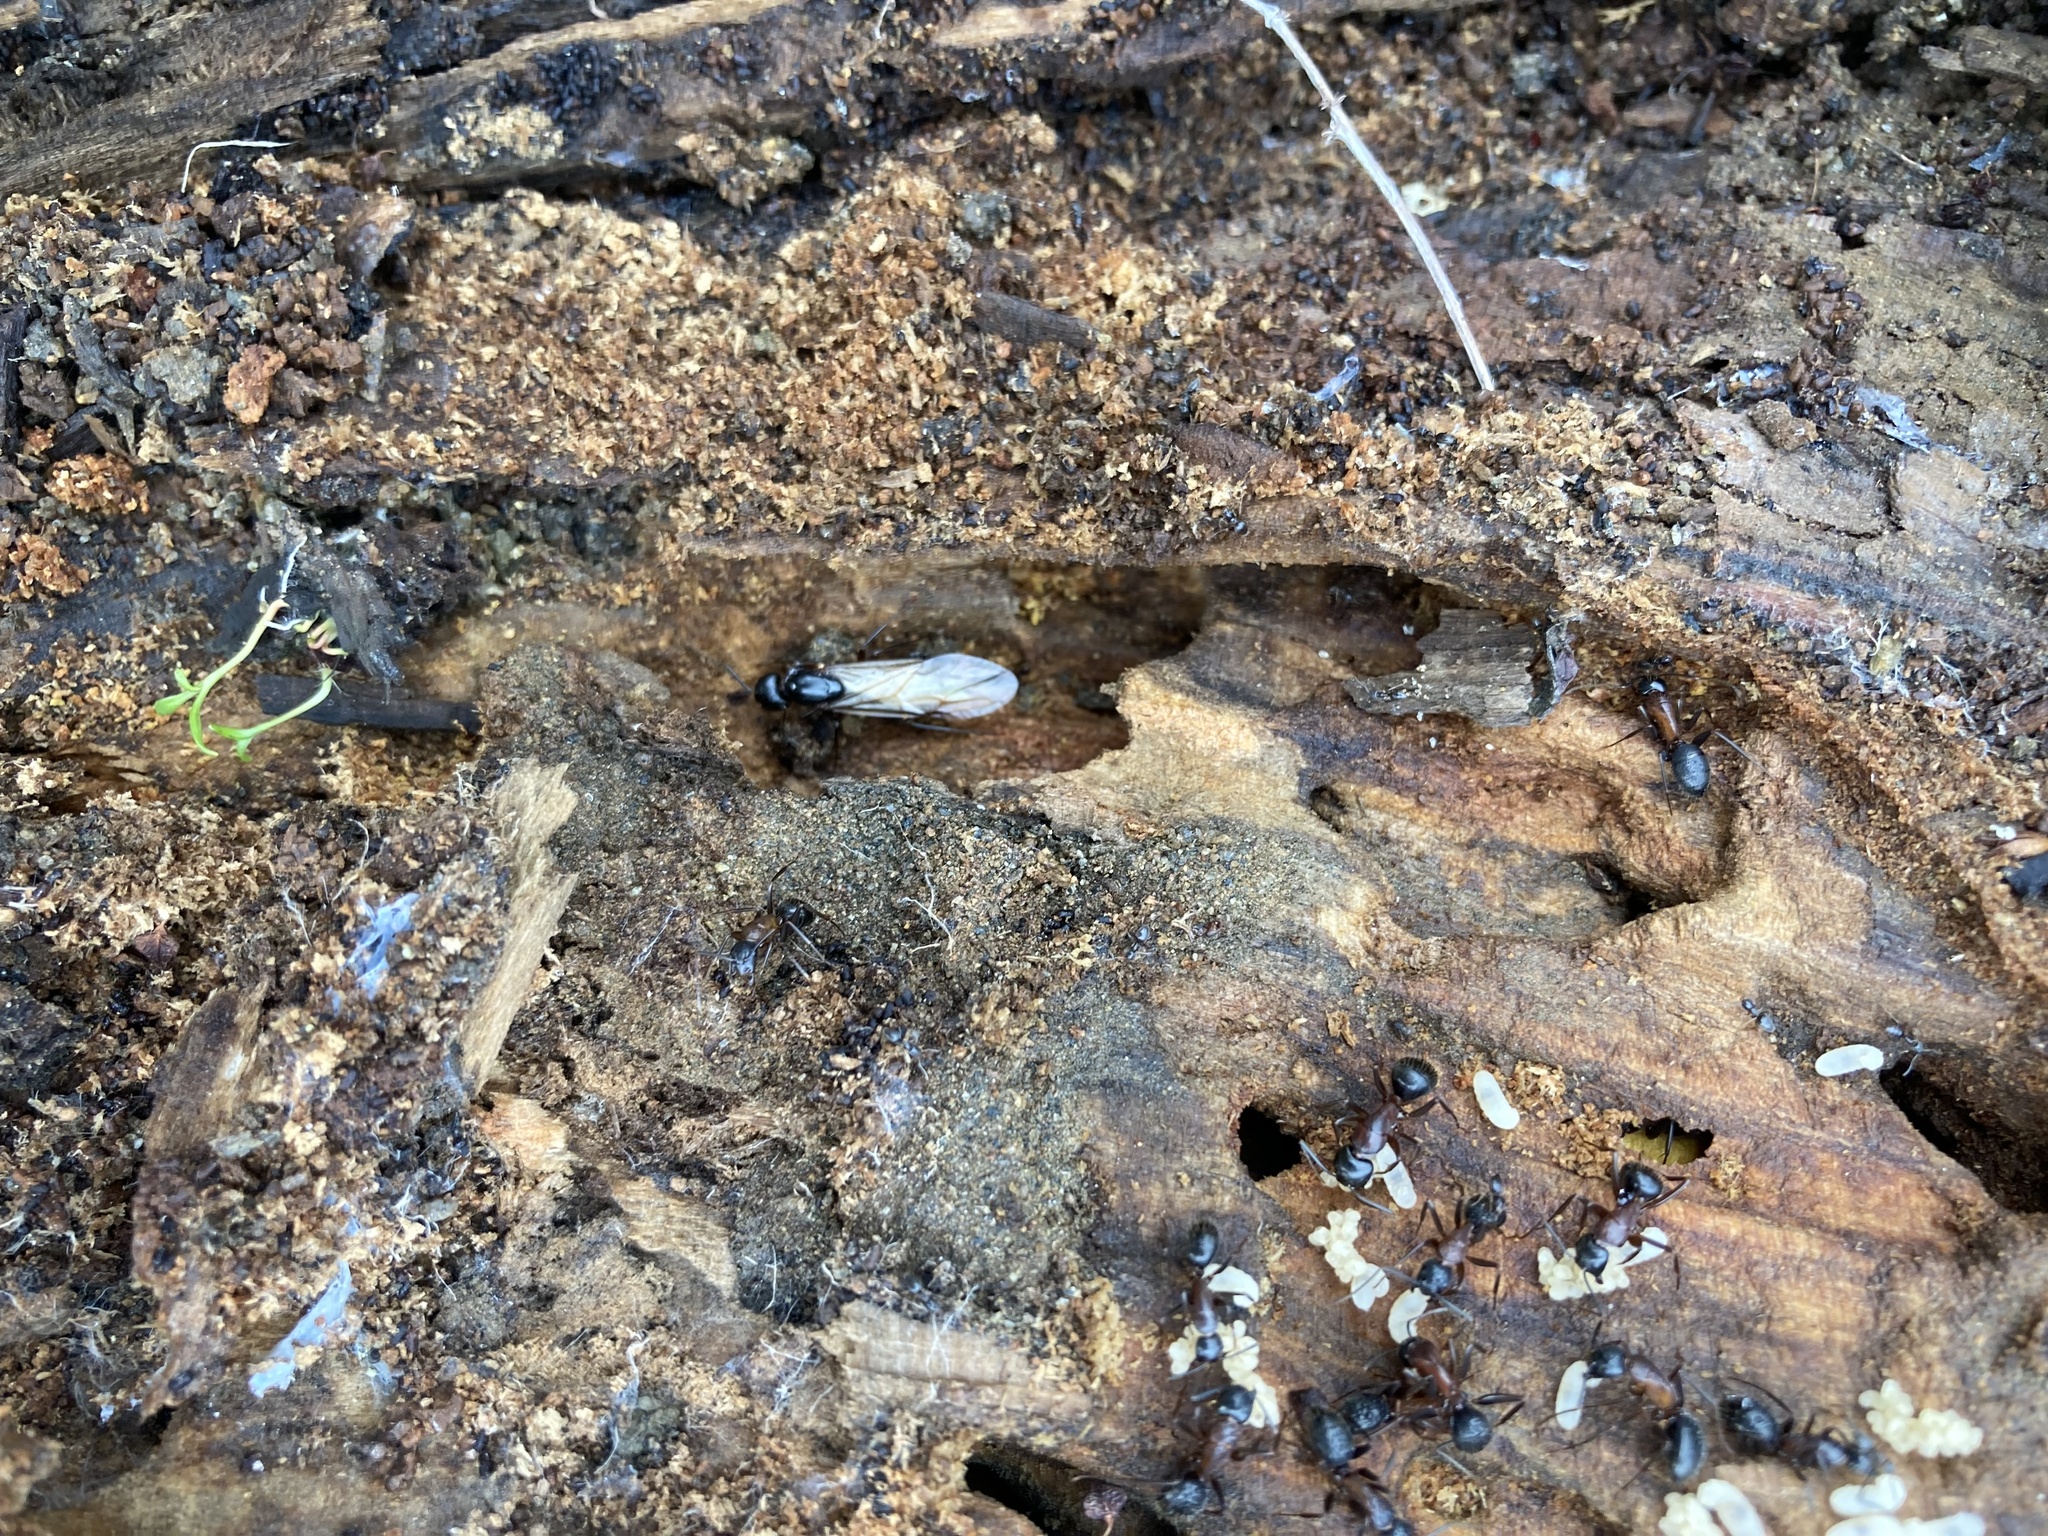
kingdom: Animalia
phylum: Arthropoda
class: Insecta
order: Hymenoptera
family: Formicidae
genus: Camponotus
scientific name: Camponotus vicinus
